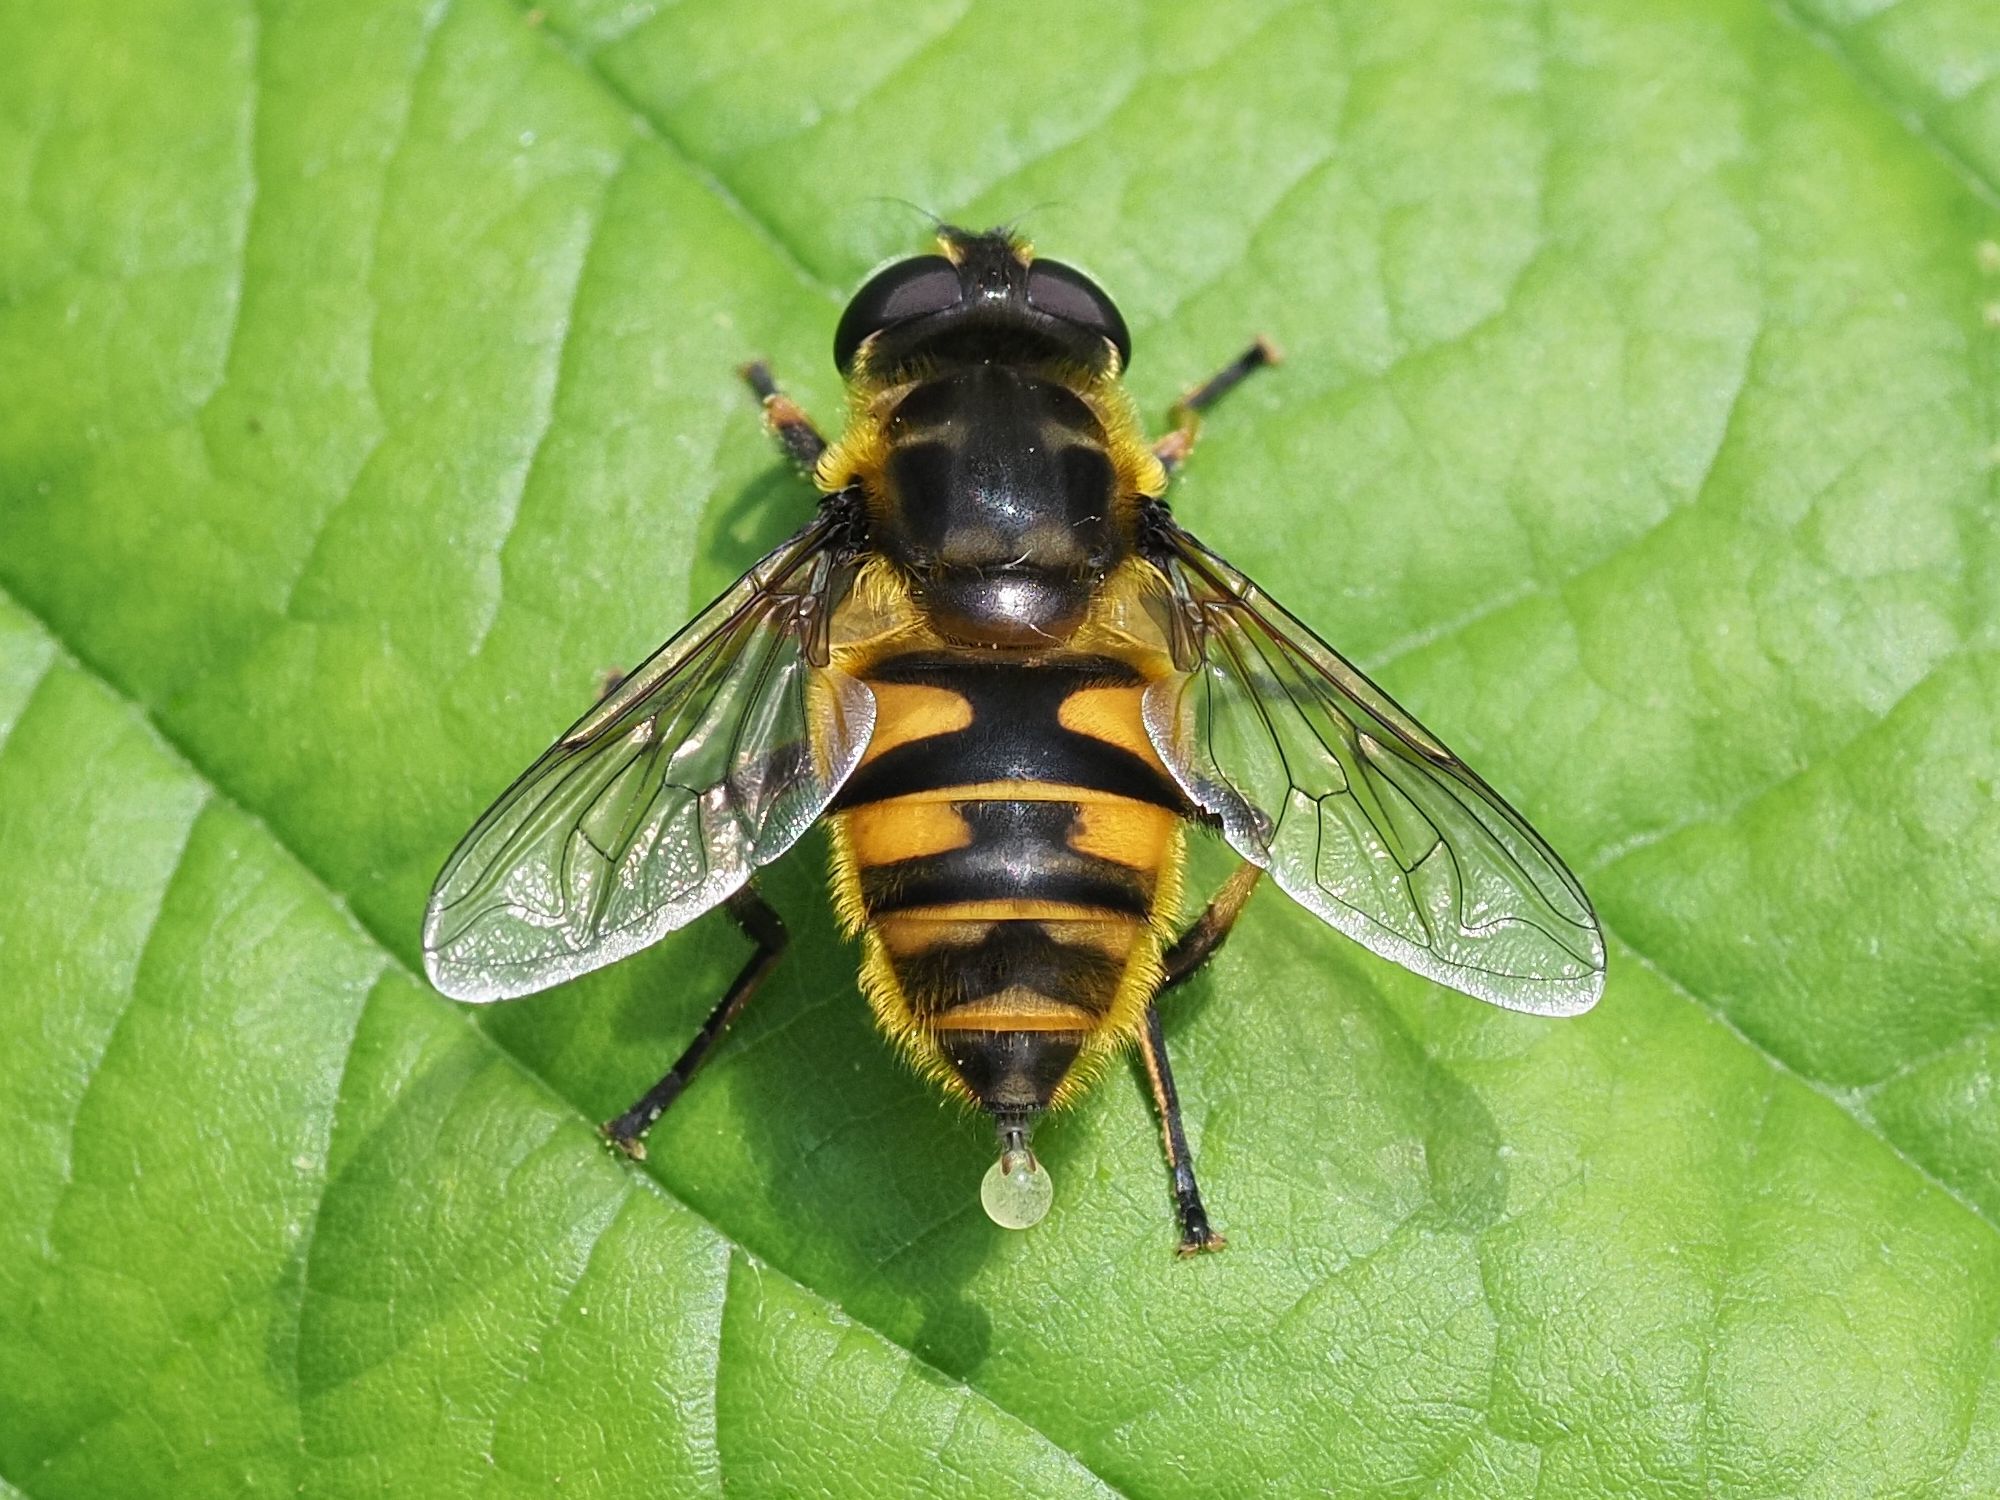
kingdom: Animalia
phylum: Arthropoda
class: Insecta
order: Diptera
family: Syrphidae
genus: Myathropa
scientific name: Myathropa florea
